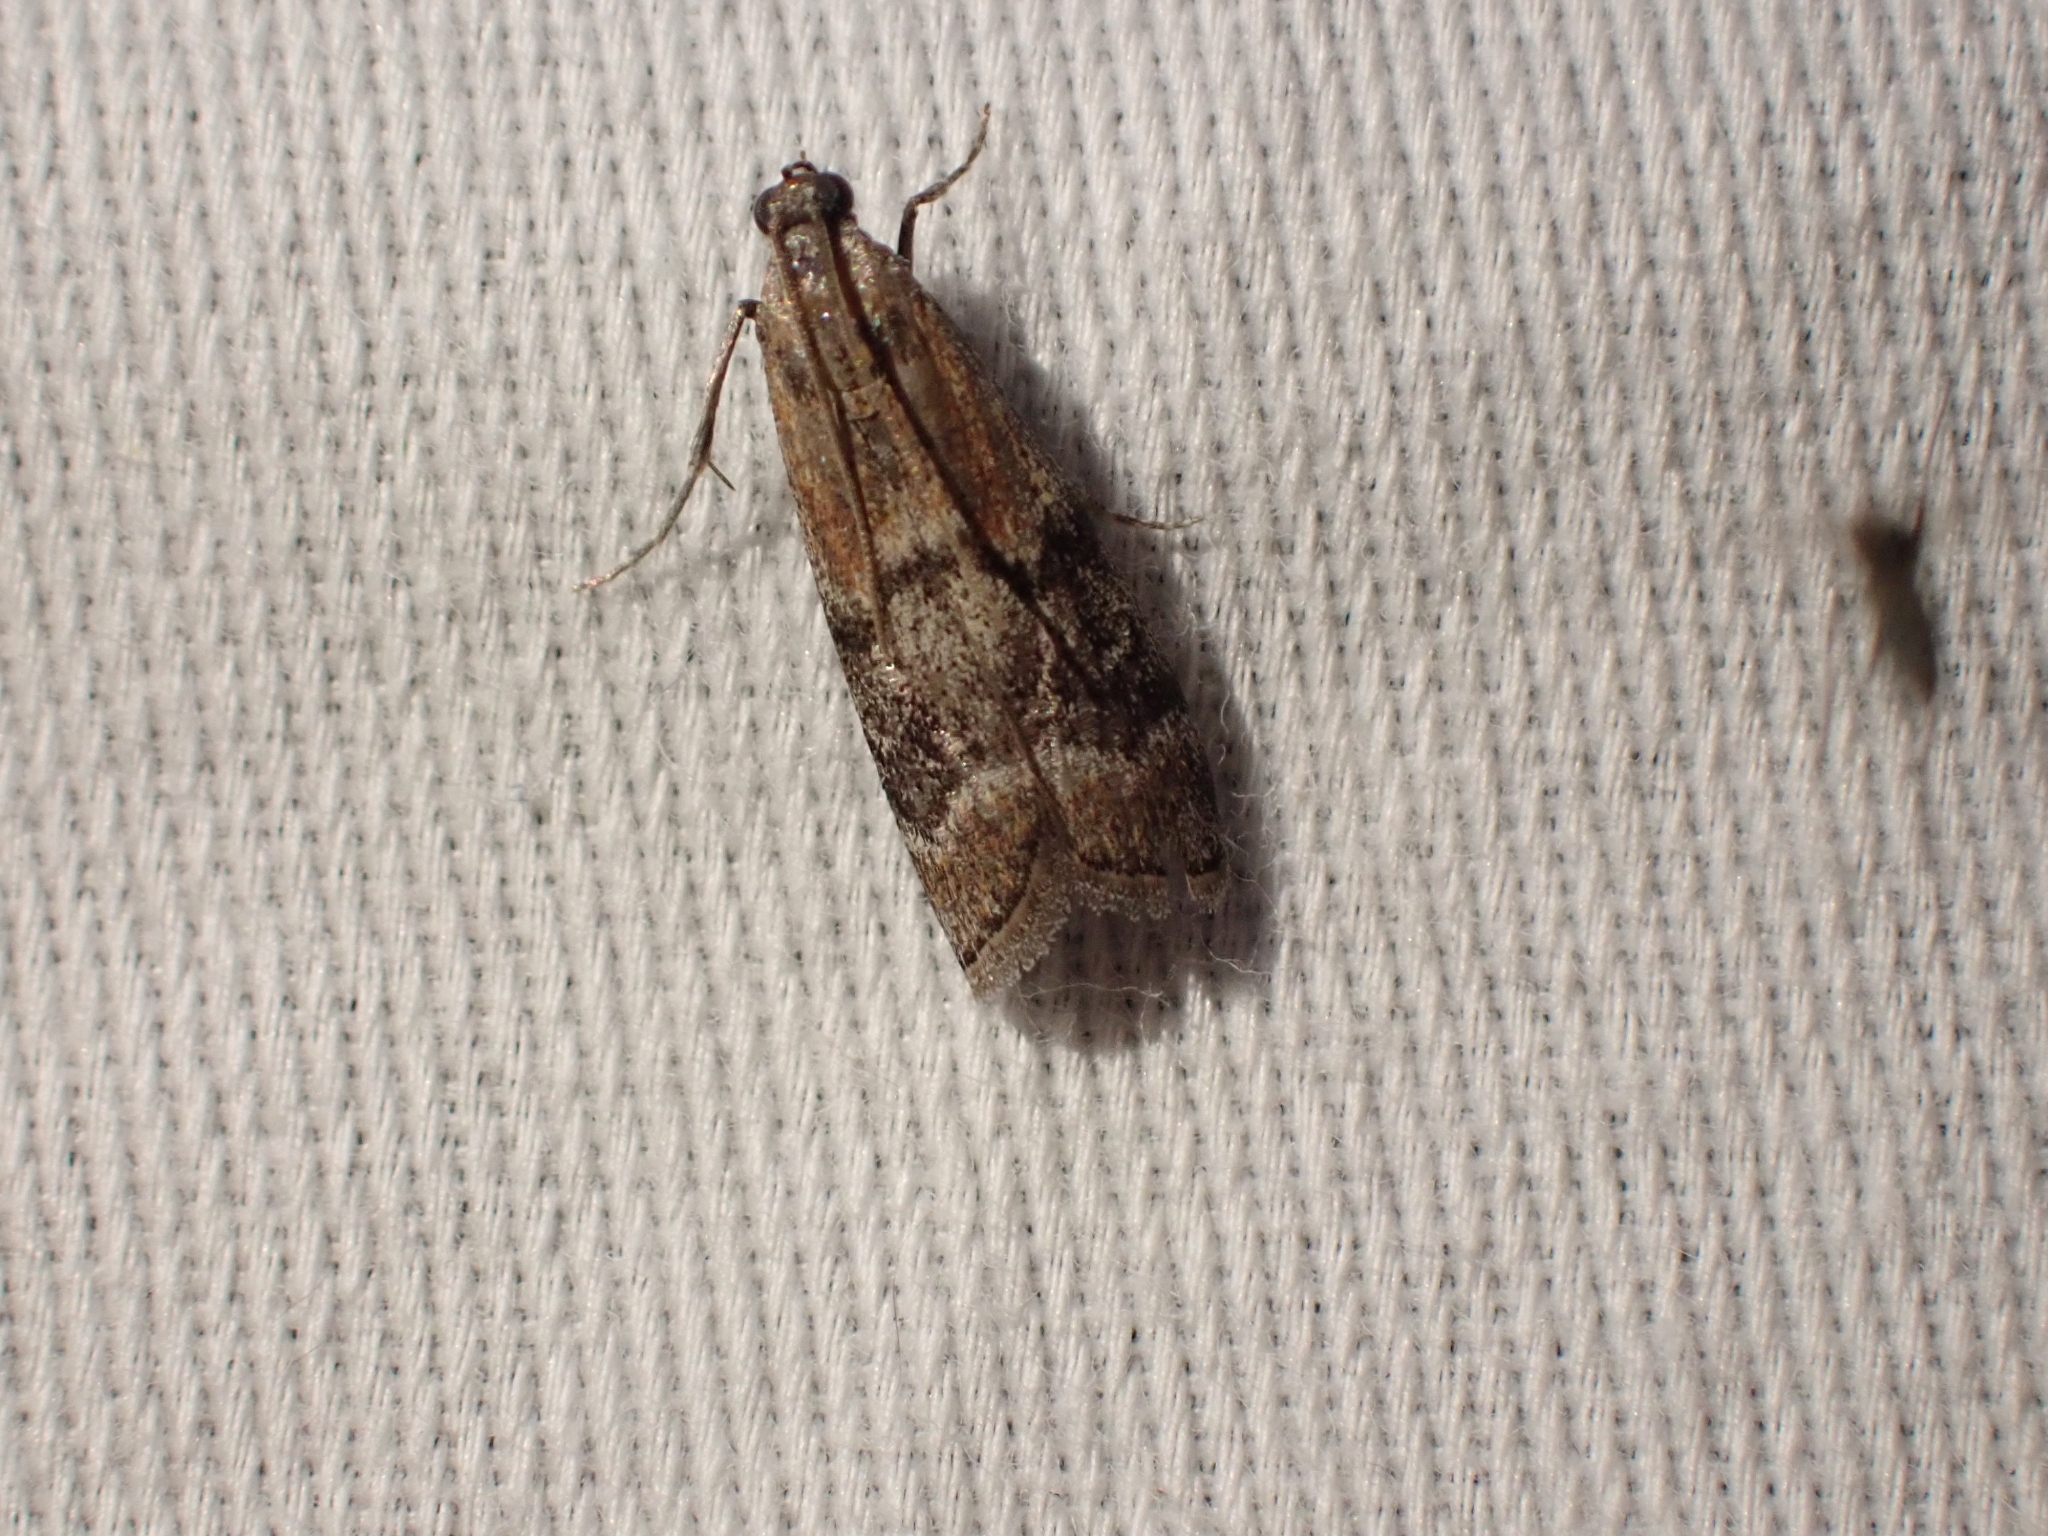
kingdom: Animalia
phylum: Arthropoda
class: Insecta
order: Lepidoptera
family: Pyralidae
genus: Euzophera
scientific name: Euzophera semifuneralis
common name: American plum borer moth
